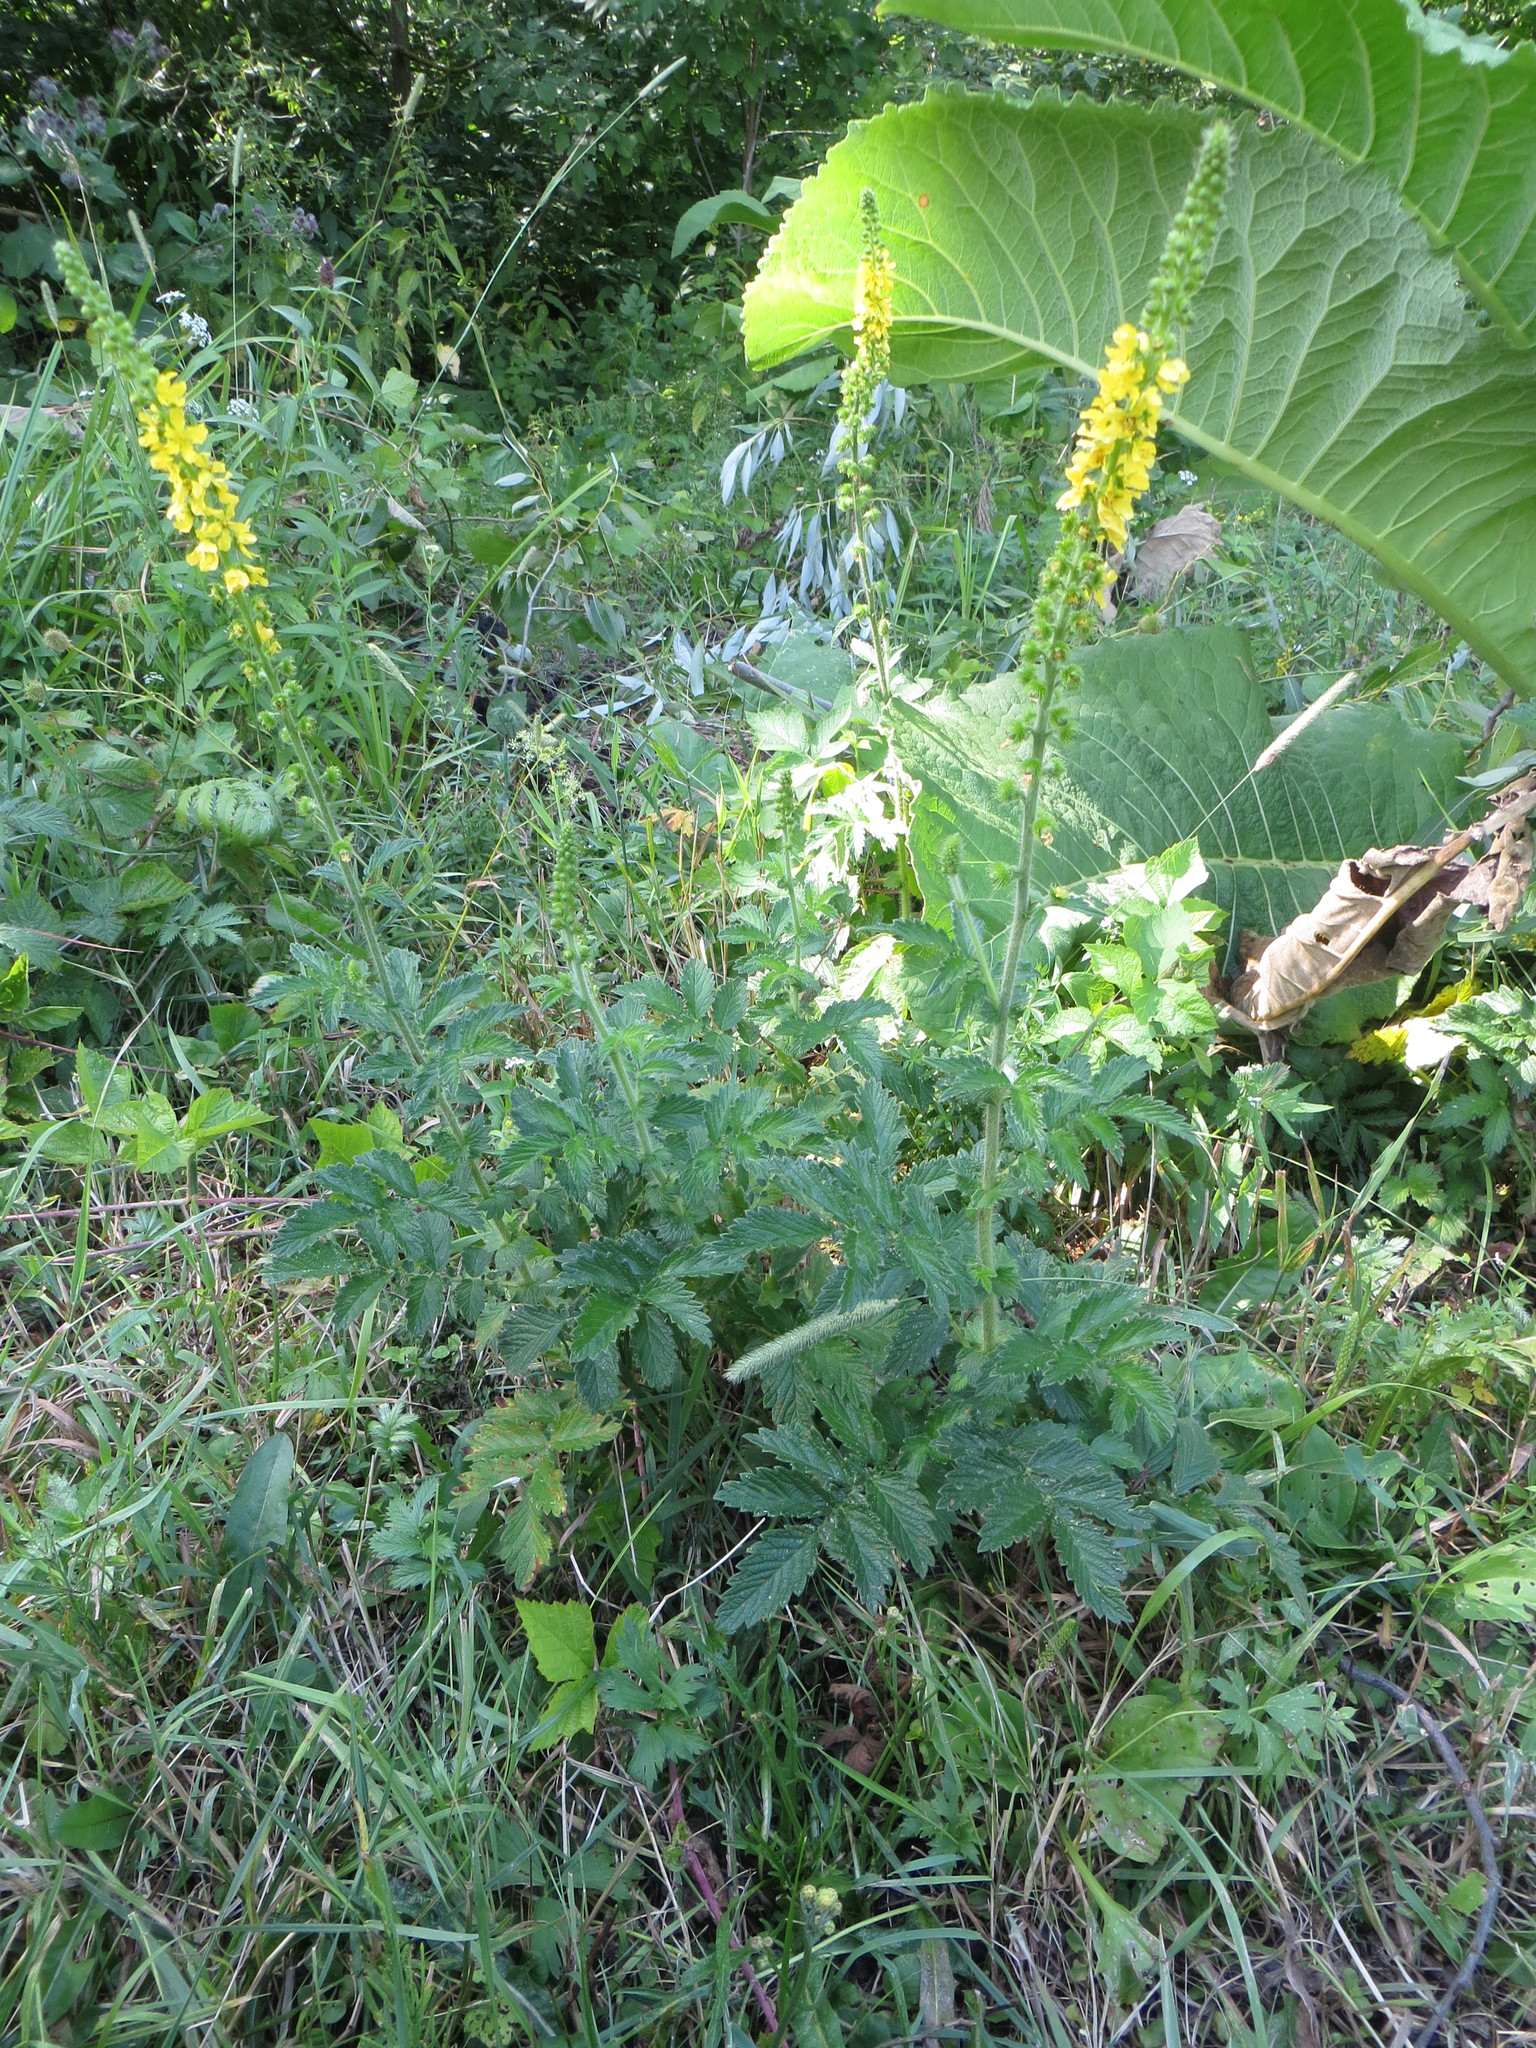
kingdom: Plantae
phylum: Tracheophyta
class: Magnoliopsida
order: Rosales
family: Rosaceae
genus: Agrimonia
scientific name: Agrimonia eupatoria
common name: Agrimony
